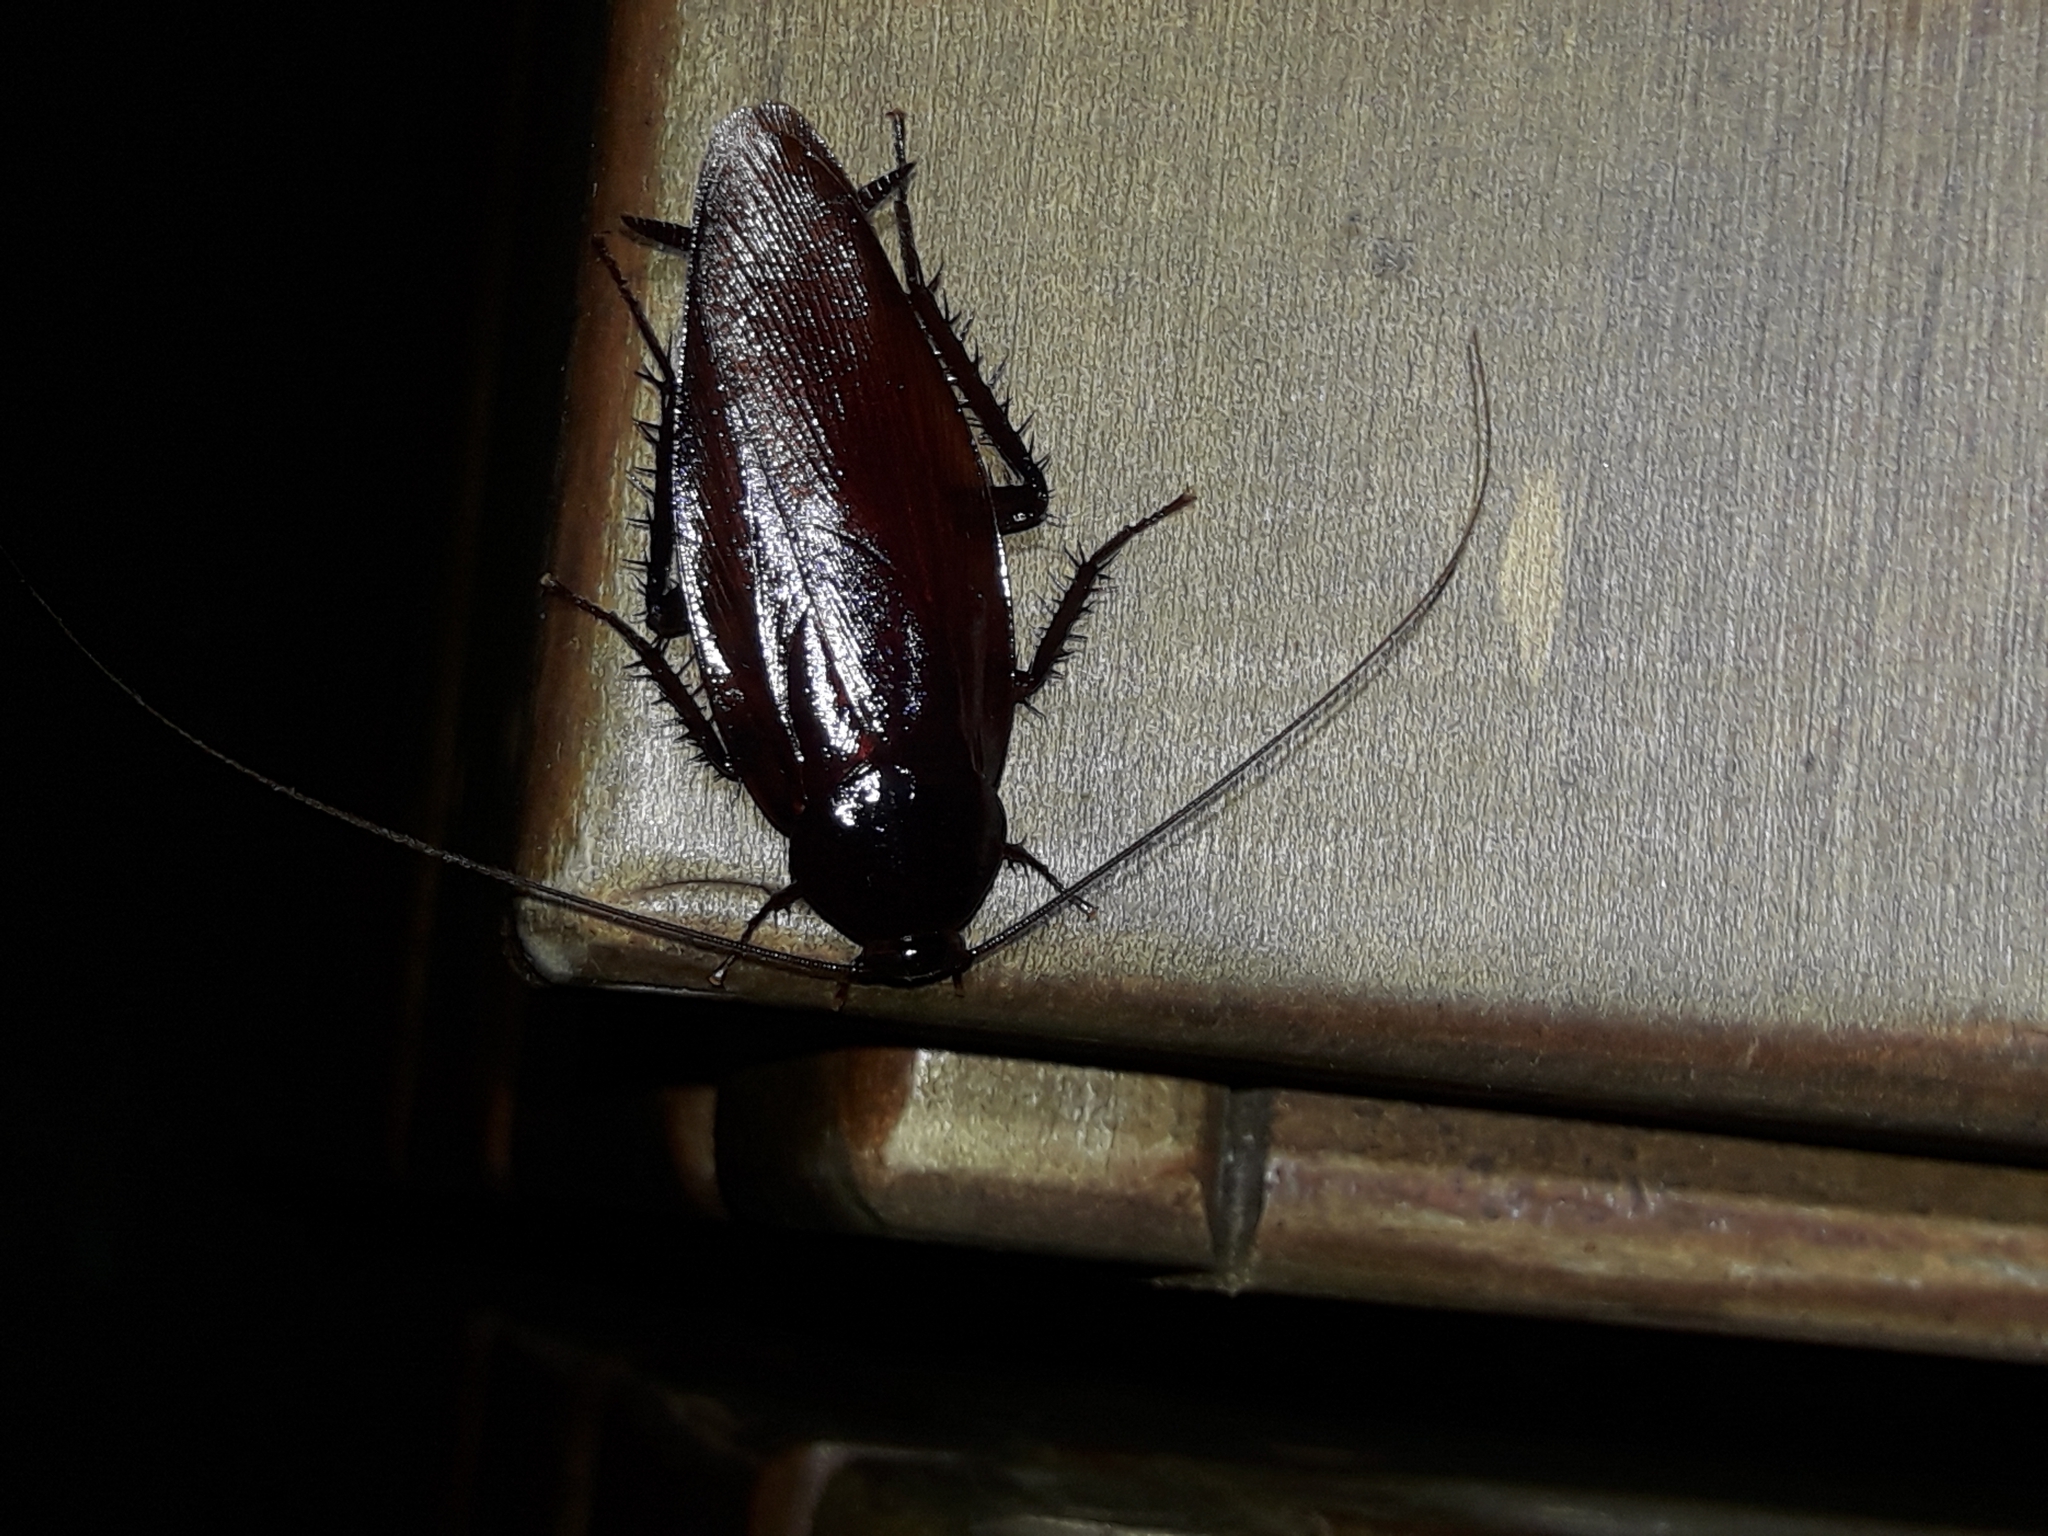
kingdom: Animalia
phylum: Arthropoda
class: Insecta
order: Blattodea
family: Blattidae
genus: Periplaneta
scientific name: Periplaneta fuliginosa
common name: Smokeybrown cockroad
